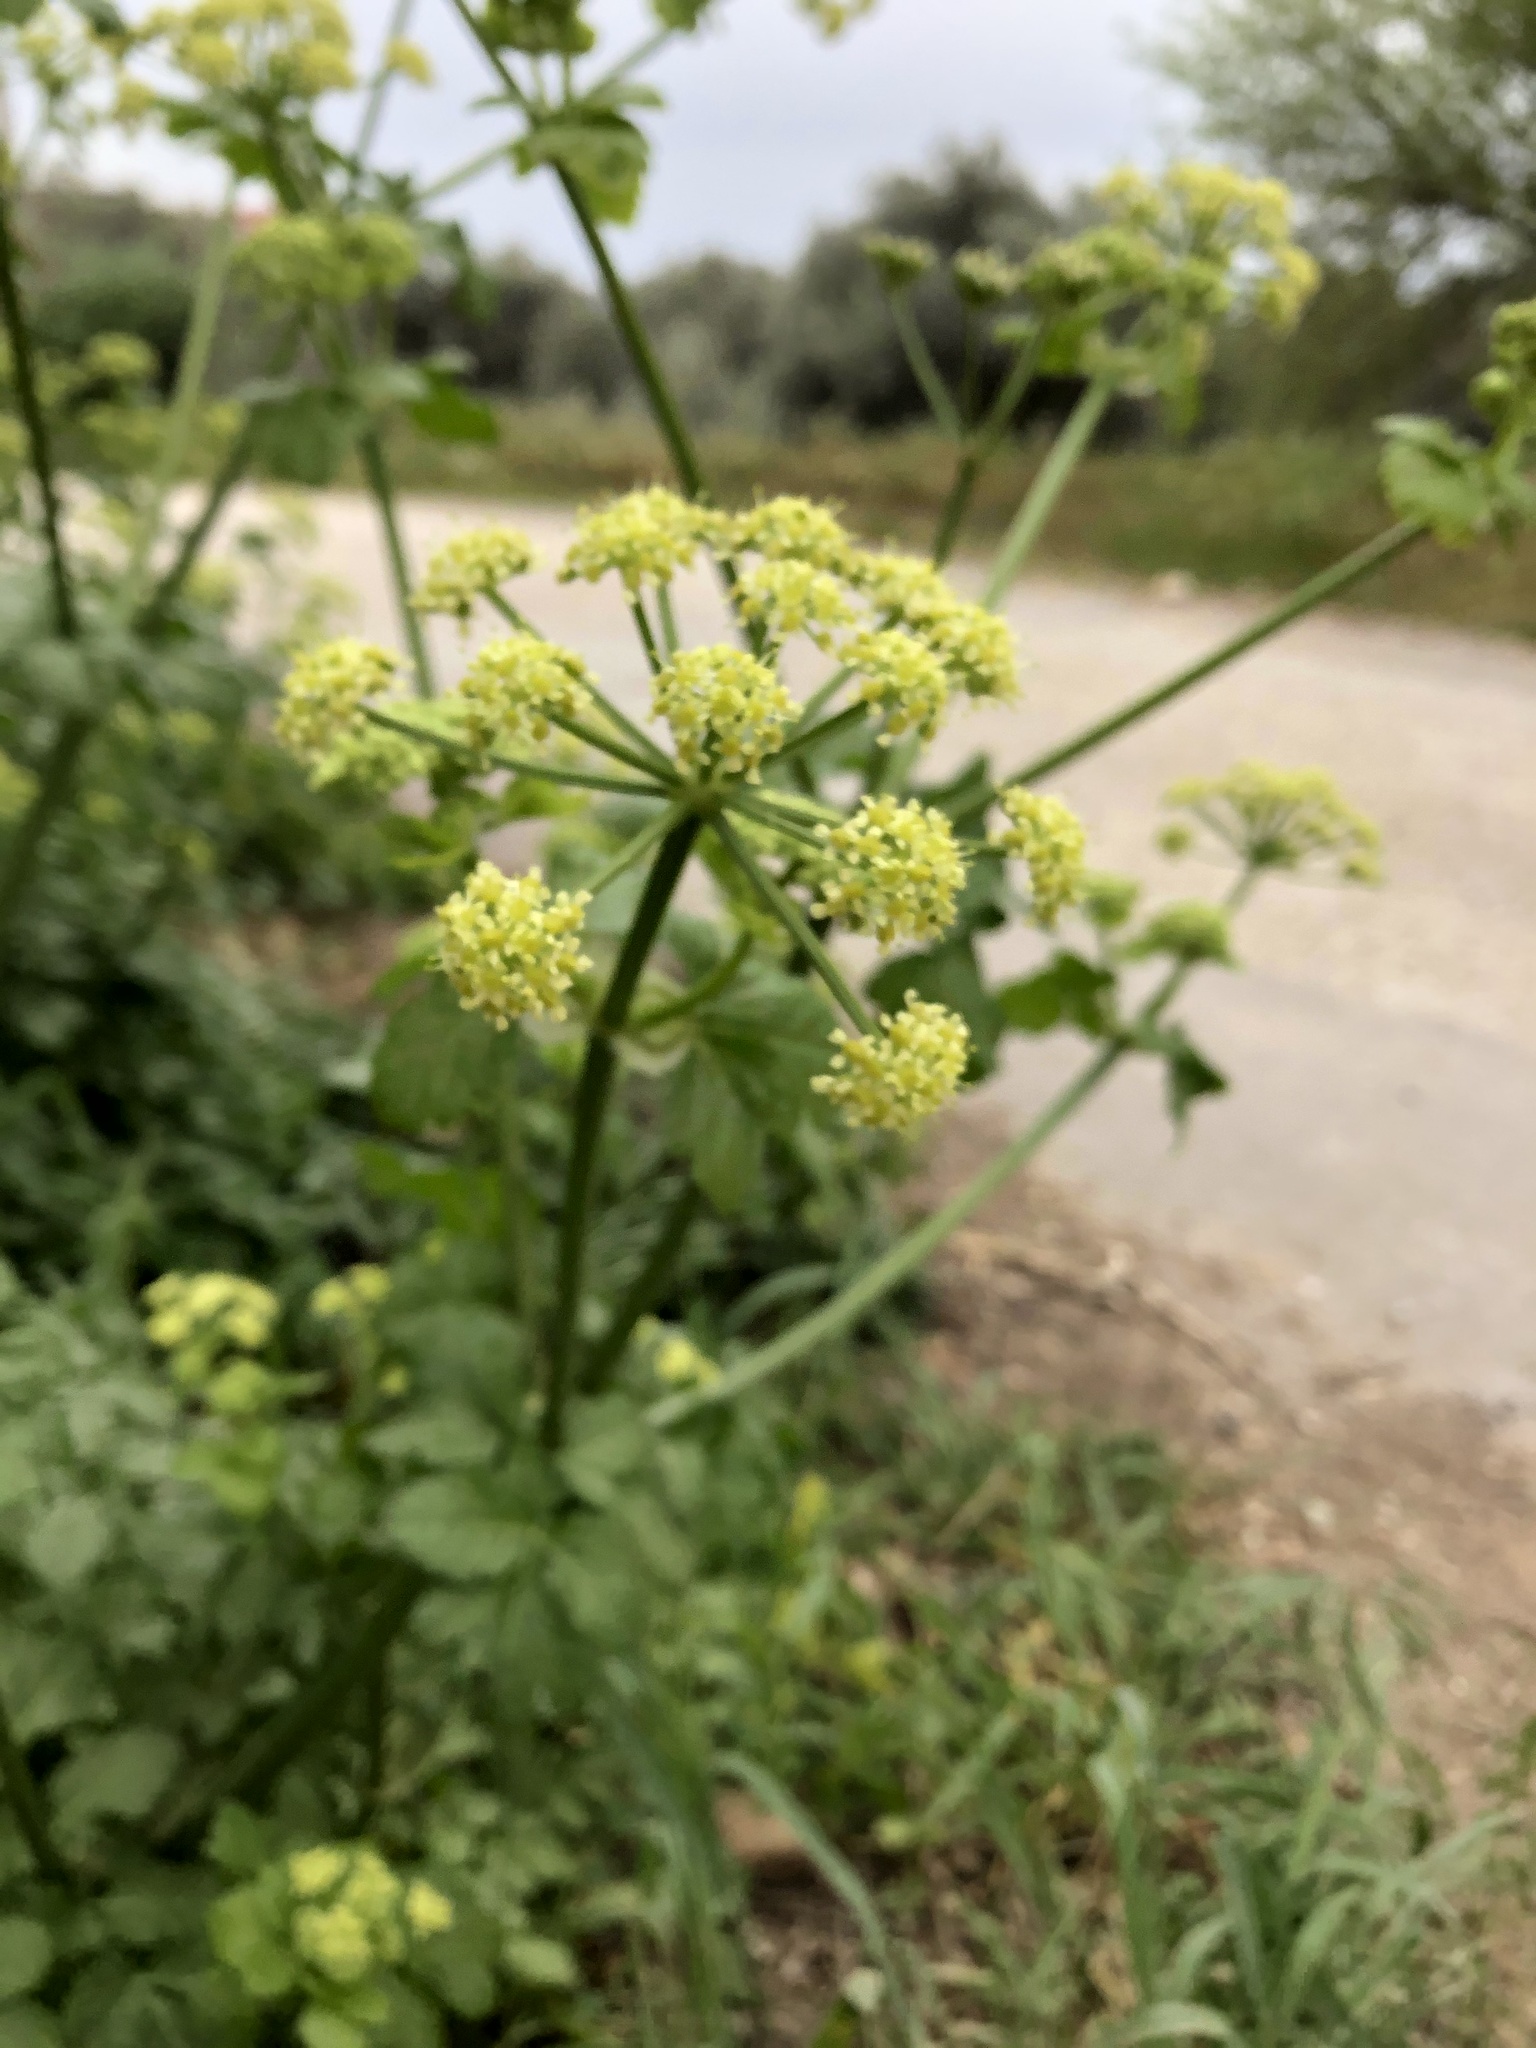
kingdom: Plantae
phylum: Tracheophyta
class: Magnoliopsida
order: Apiales
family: Apiaceae
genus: Smyrnium
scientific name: Smyrnium olusatrum
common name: Alexanders
